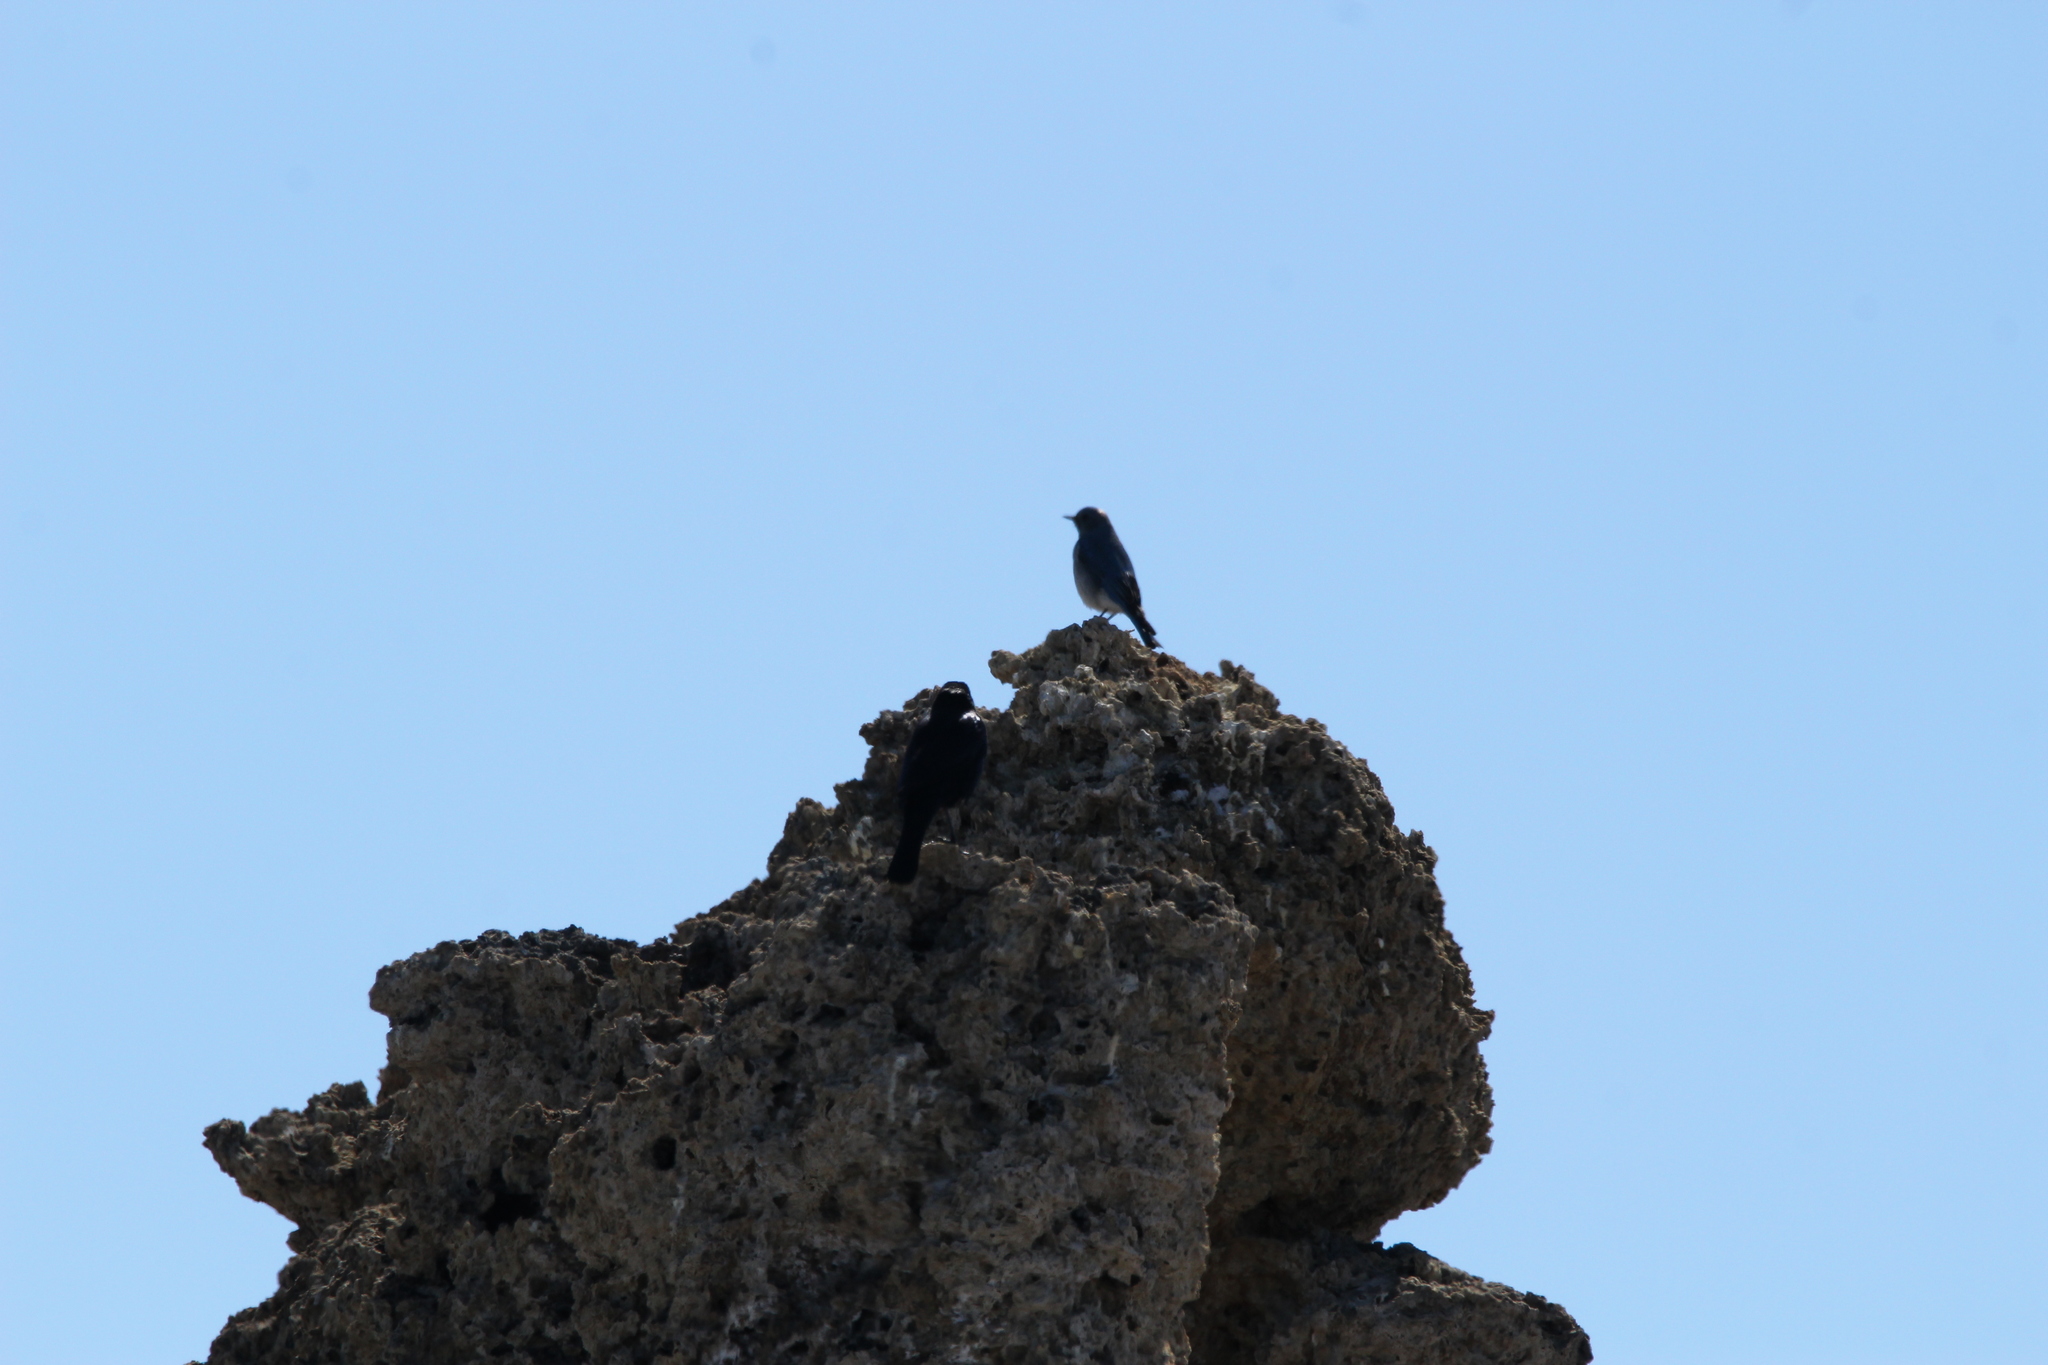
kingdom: Animalia
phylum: Chordata
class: Aves
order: Passeriformes
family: Turdidae
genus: Sialia
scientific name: Sialia currucoides
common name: Mountain bluebird
